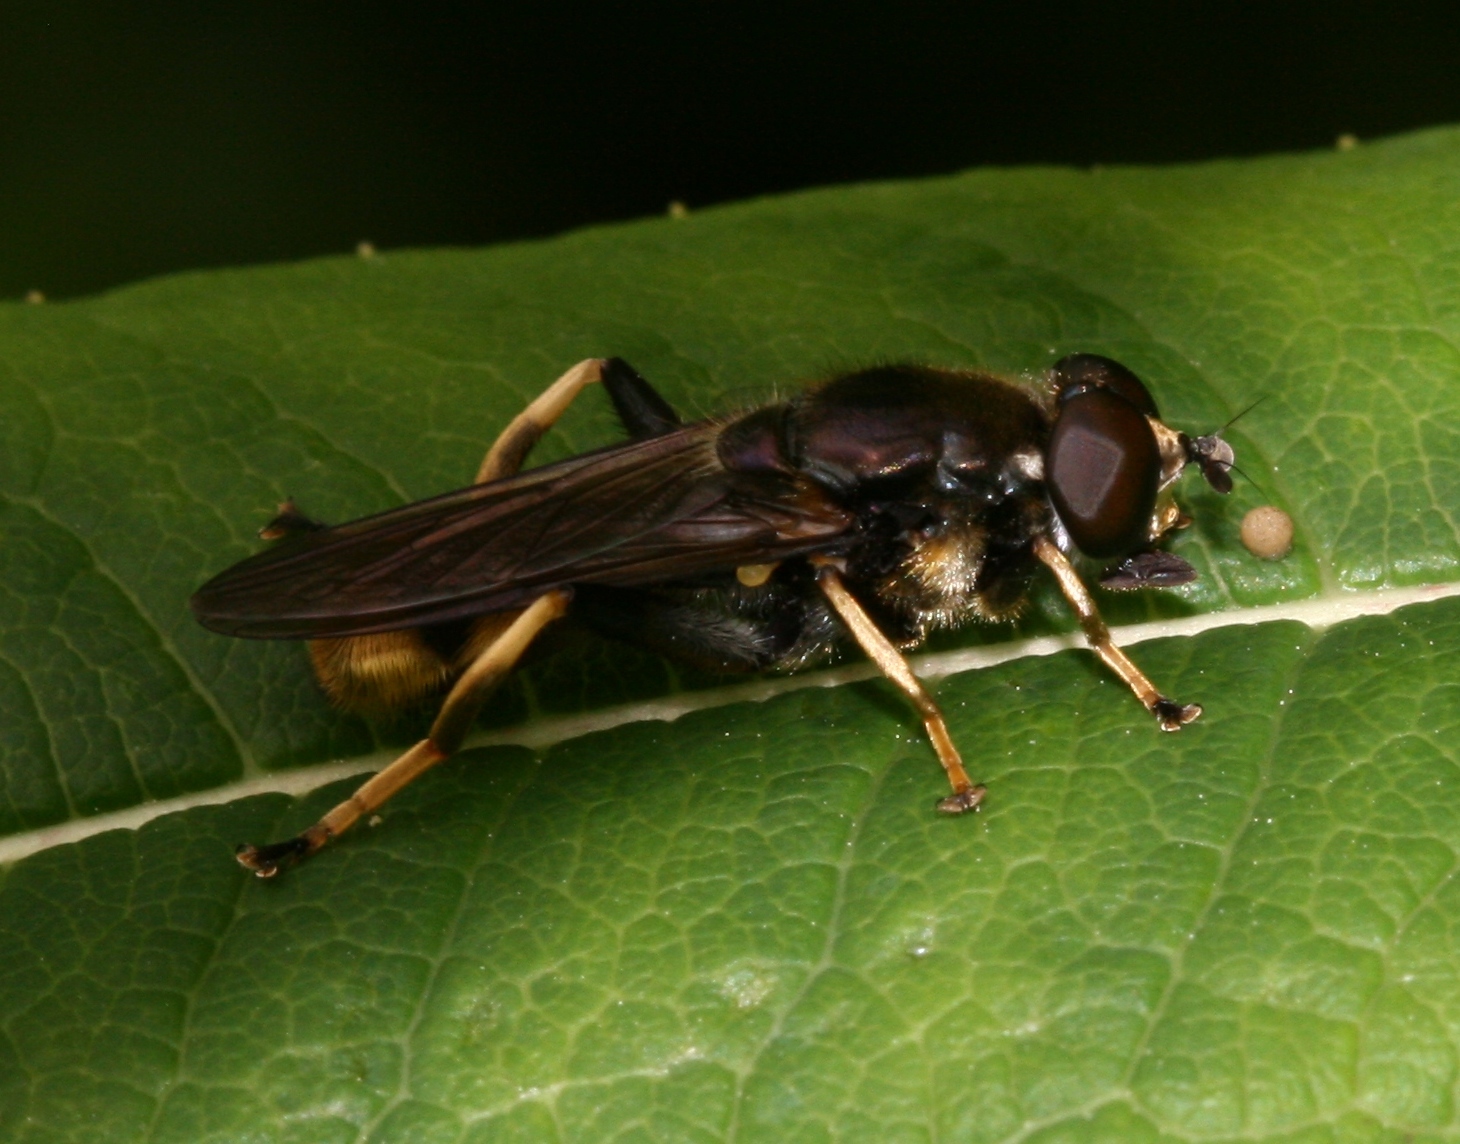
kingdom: Animalia
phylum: Arthropoda
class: Insecta
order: Diptera
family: Syrphidae
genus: Xylota
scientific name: Xylota sylvarum
